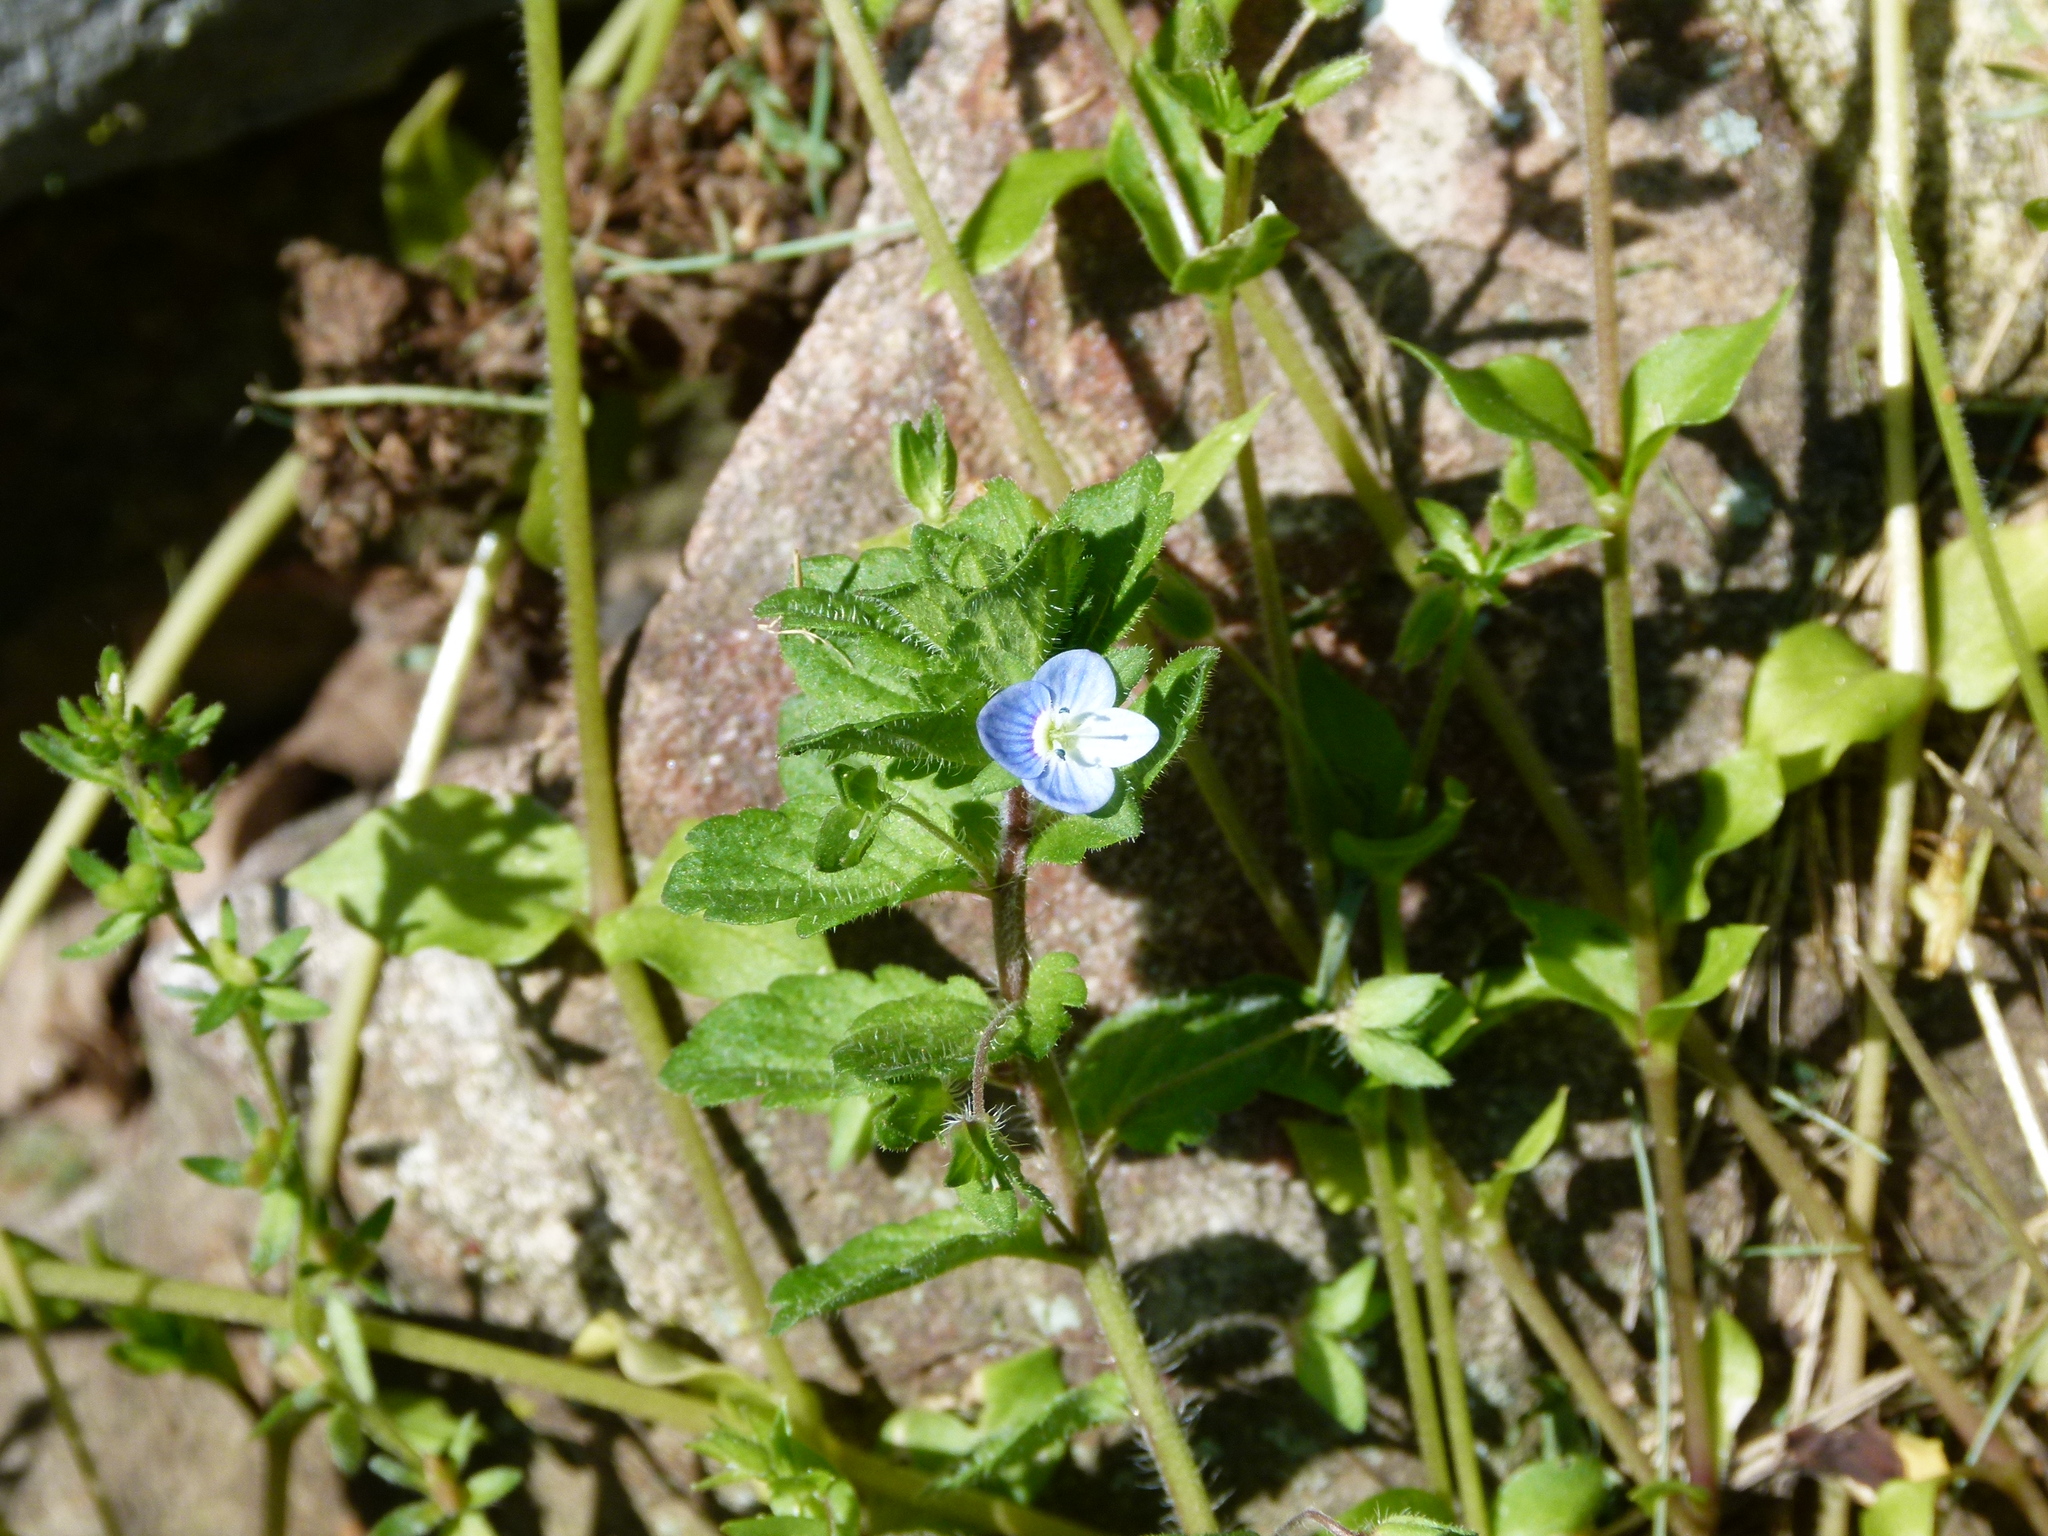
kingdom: Plantae
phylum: Tracheophyta
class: Magnoliopsida
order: Lamiales
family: Plantaginaceae
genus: Veronica
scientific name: Veronica persica
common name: Common field-speedwell
